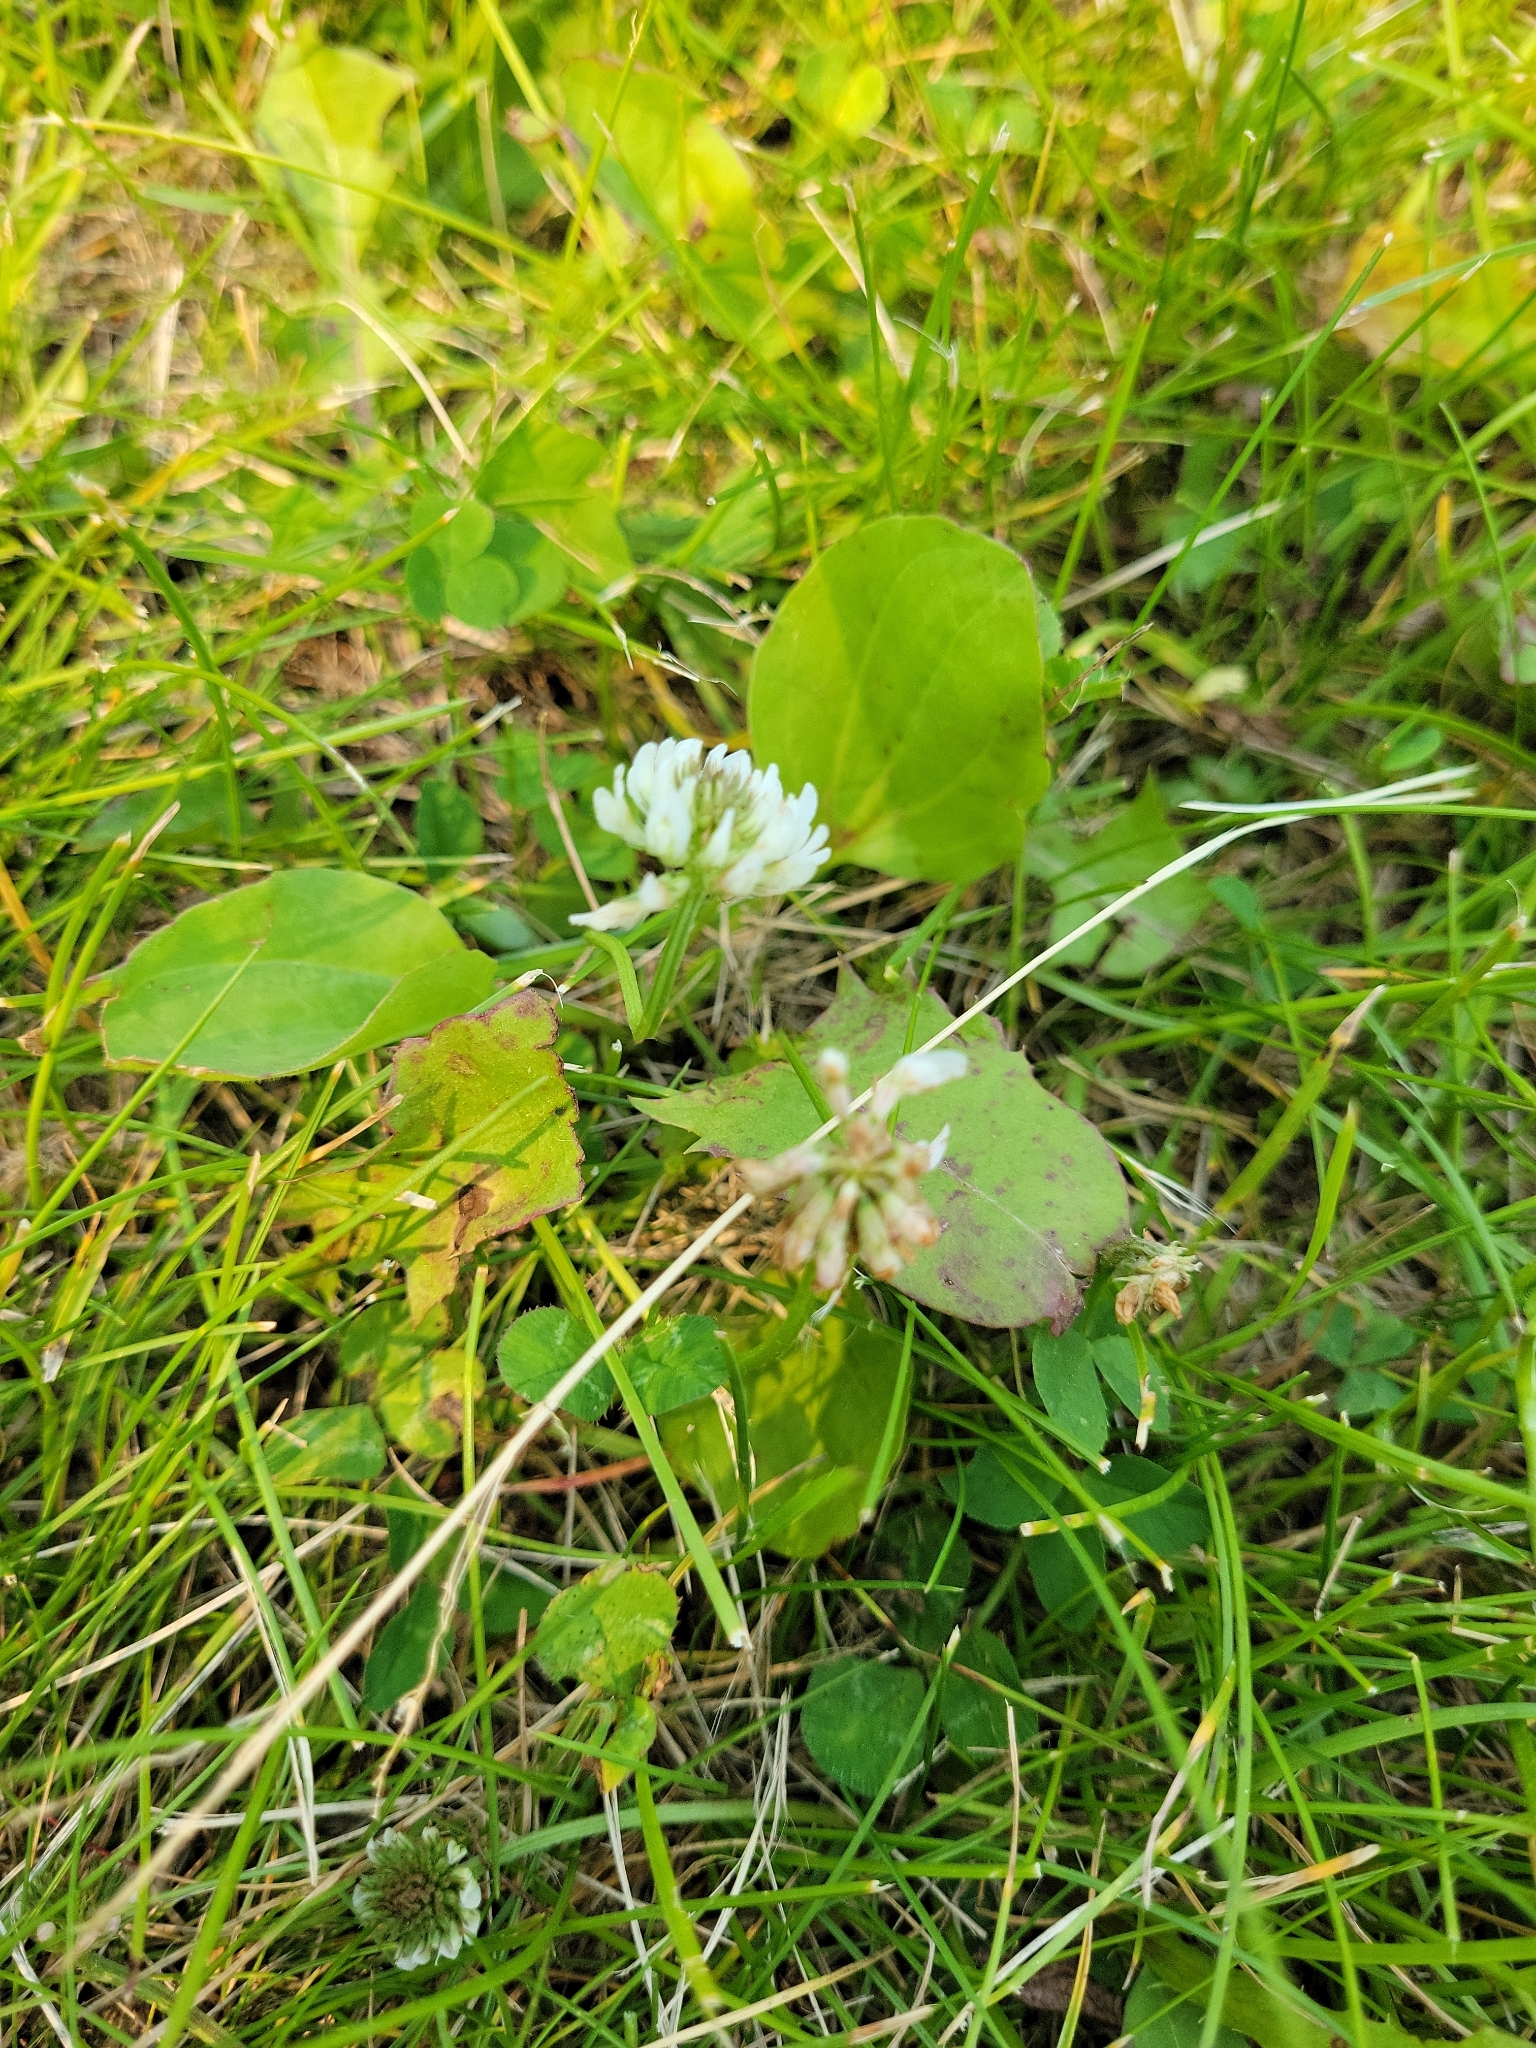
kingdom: Plantae
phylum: Tracheophyta
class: Magnoliopsida
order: Fabales
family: Fabaceae
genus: Trifolium
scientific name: Trifolium repens
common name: White clover
